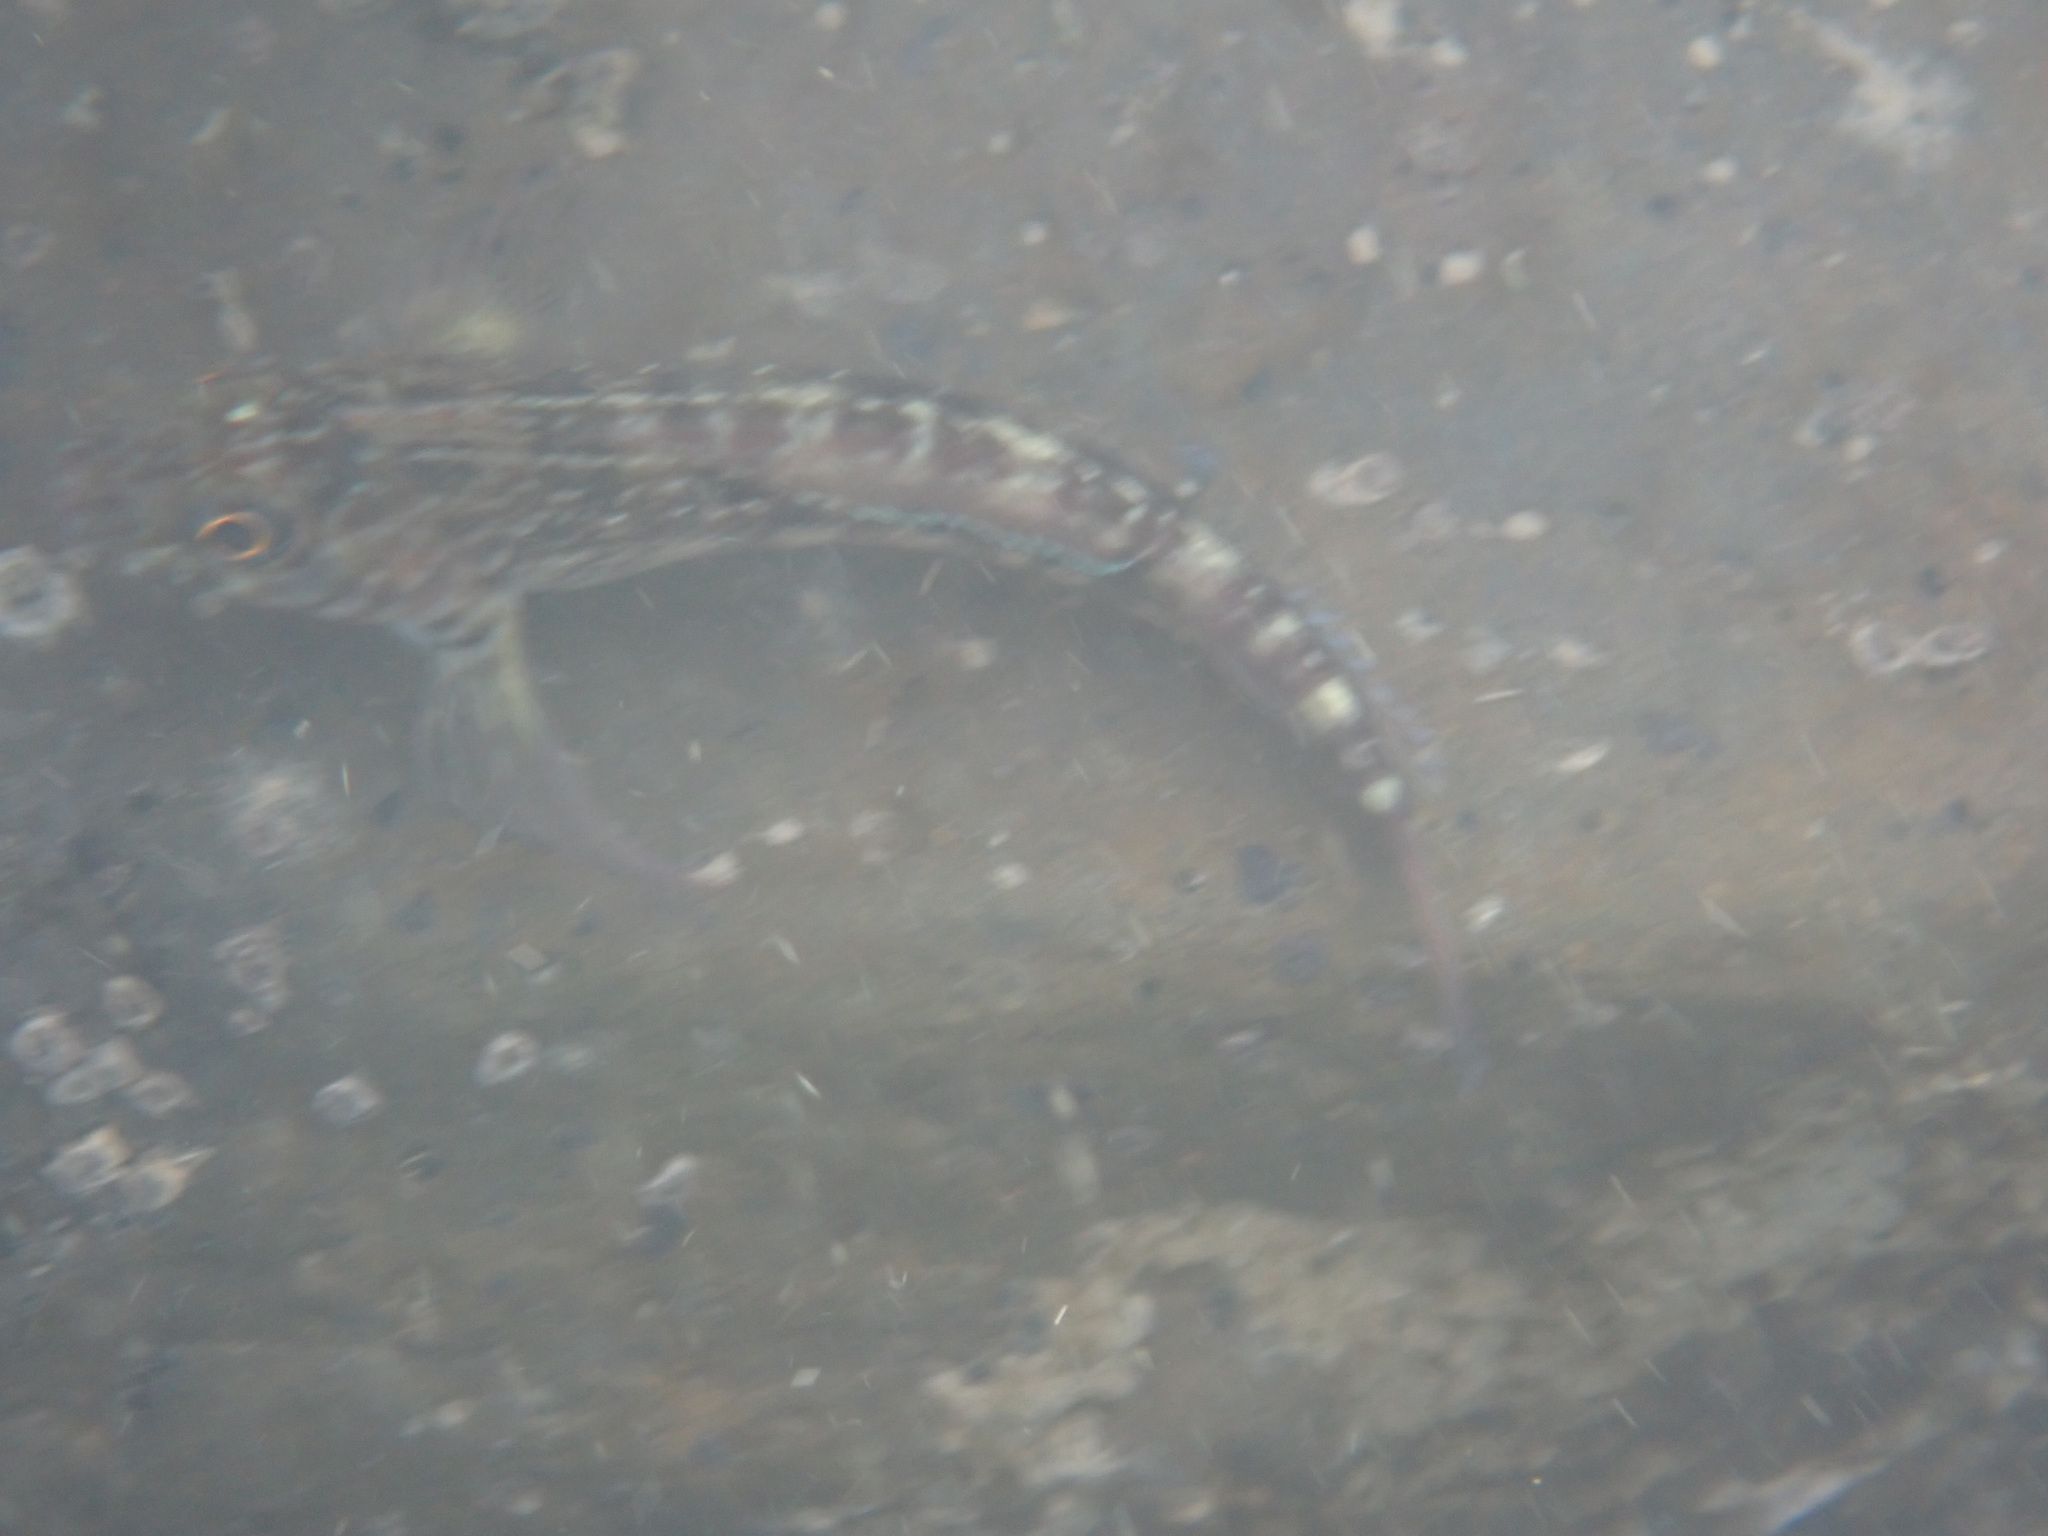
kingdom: Animalia
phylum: Chordata
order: Perciformes
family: Tripterygiidae
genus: Forsterygion
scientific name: Forsterygion varium
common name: Variable triplefin
